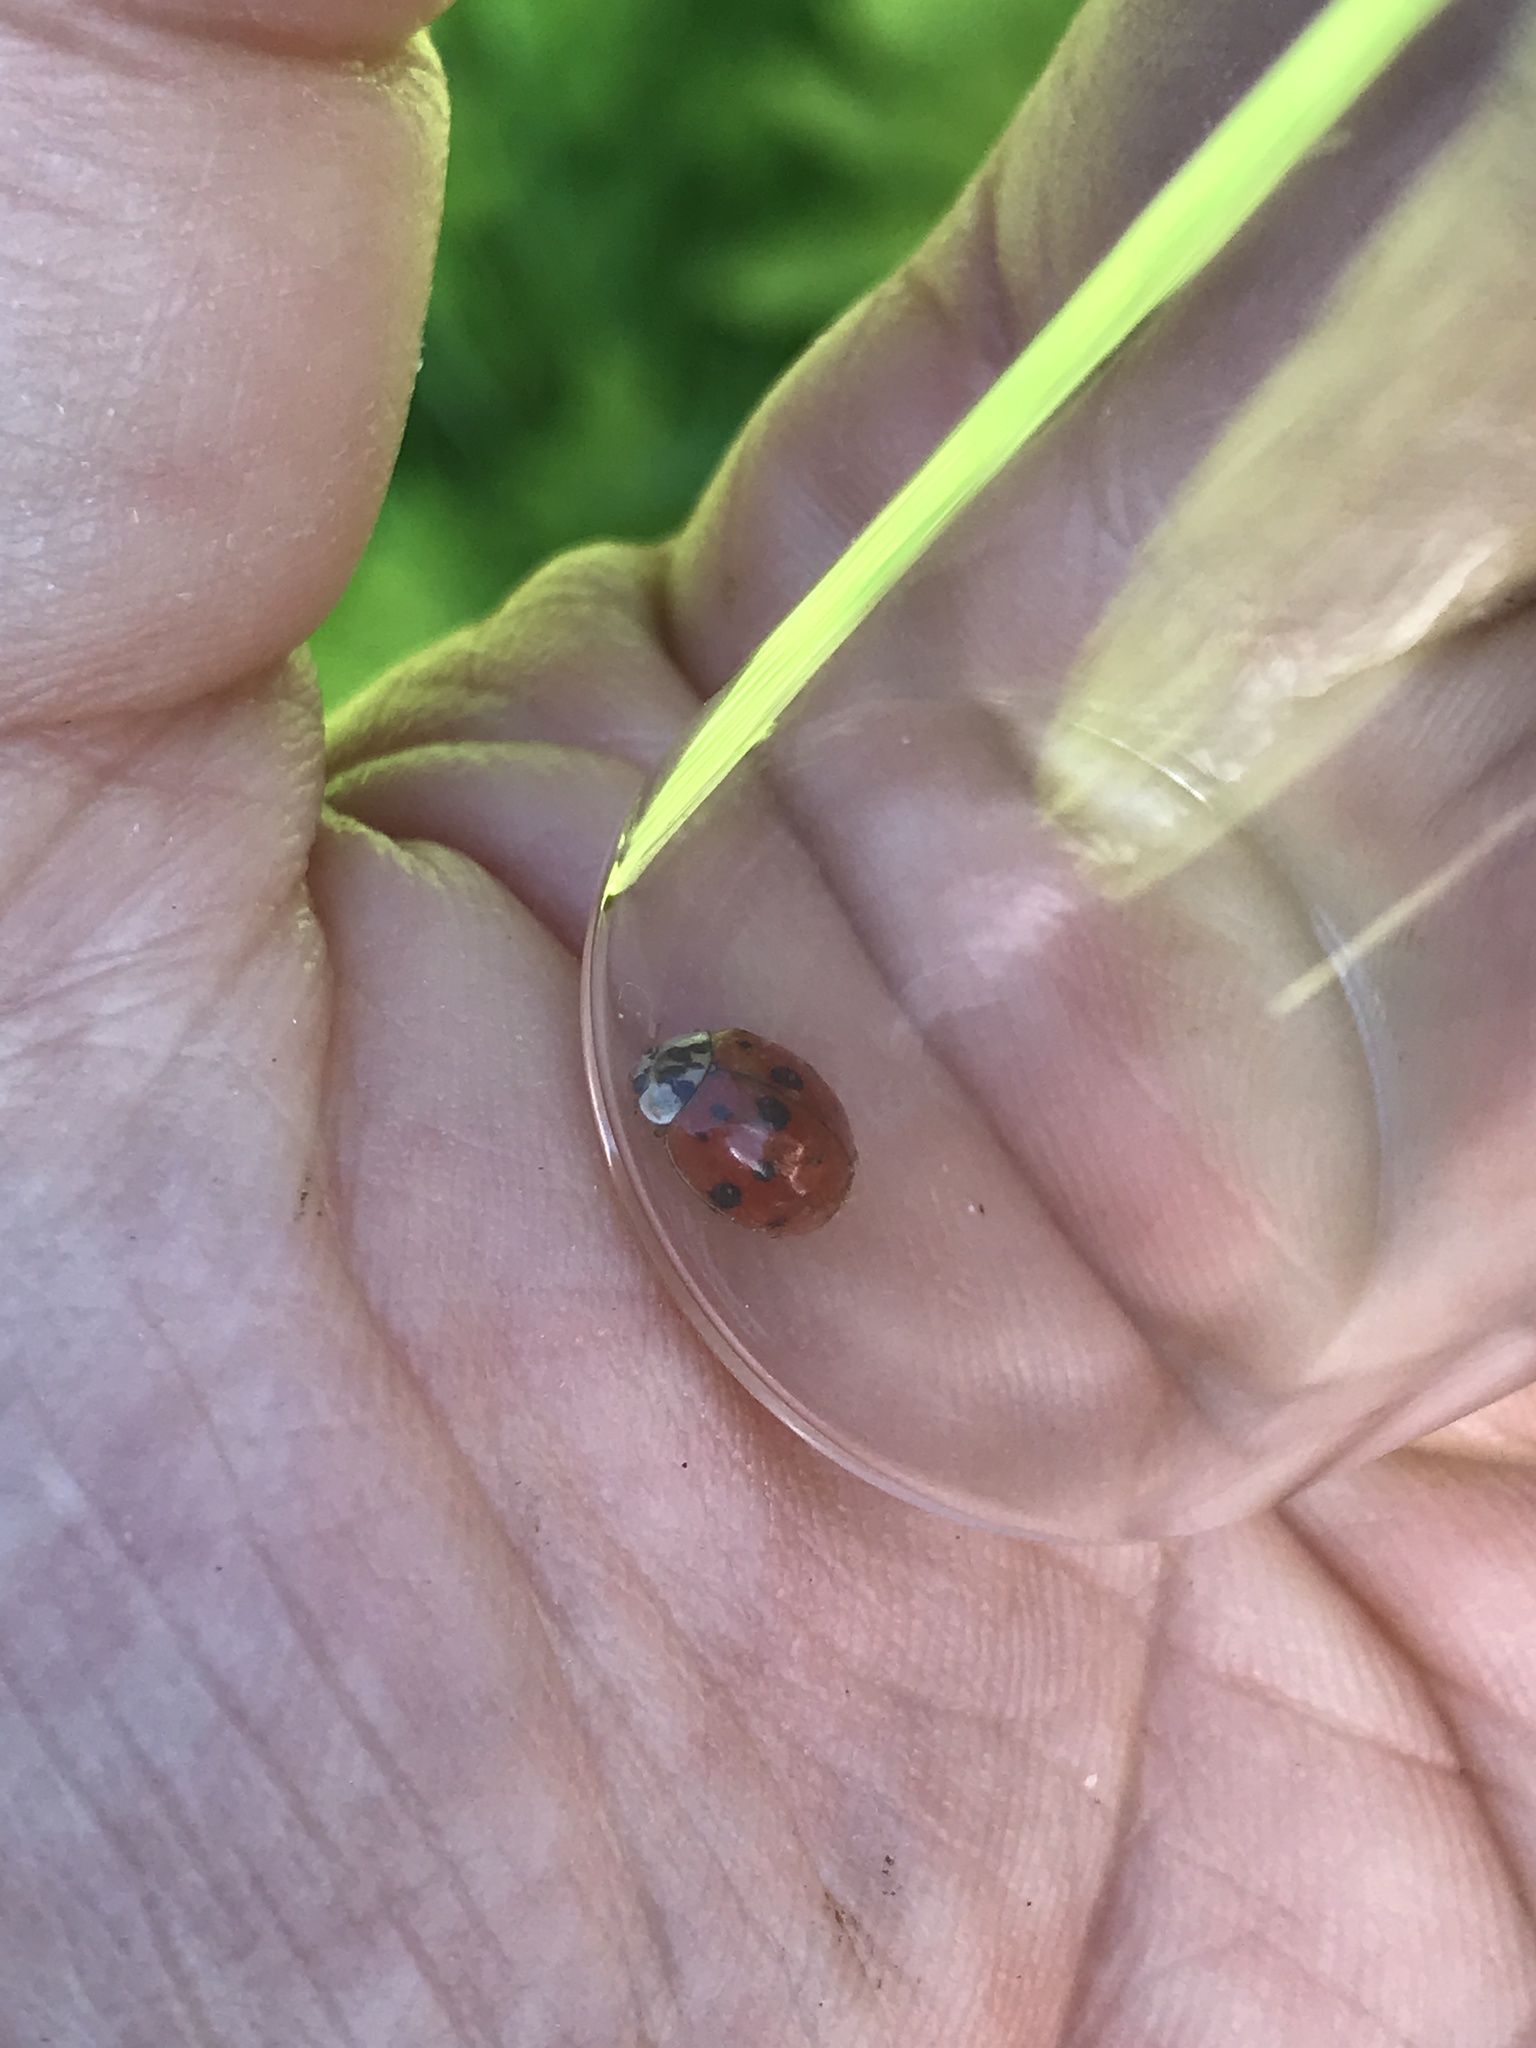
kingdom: Animalia
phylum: Arthropoda
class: Insecta
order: Coleoptera
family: Coccinellidae
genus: Harmonia
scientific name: Harmonia axyridis
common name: Harlequin ladybird
